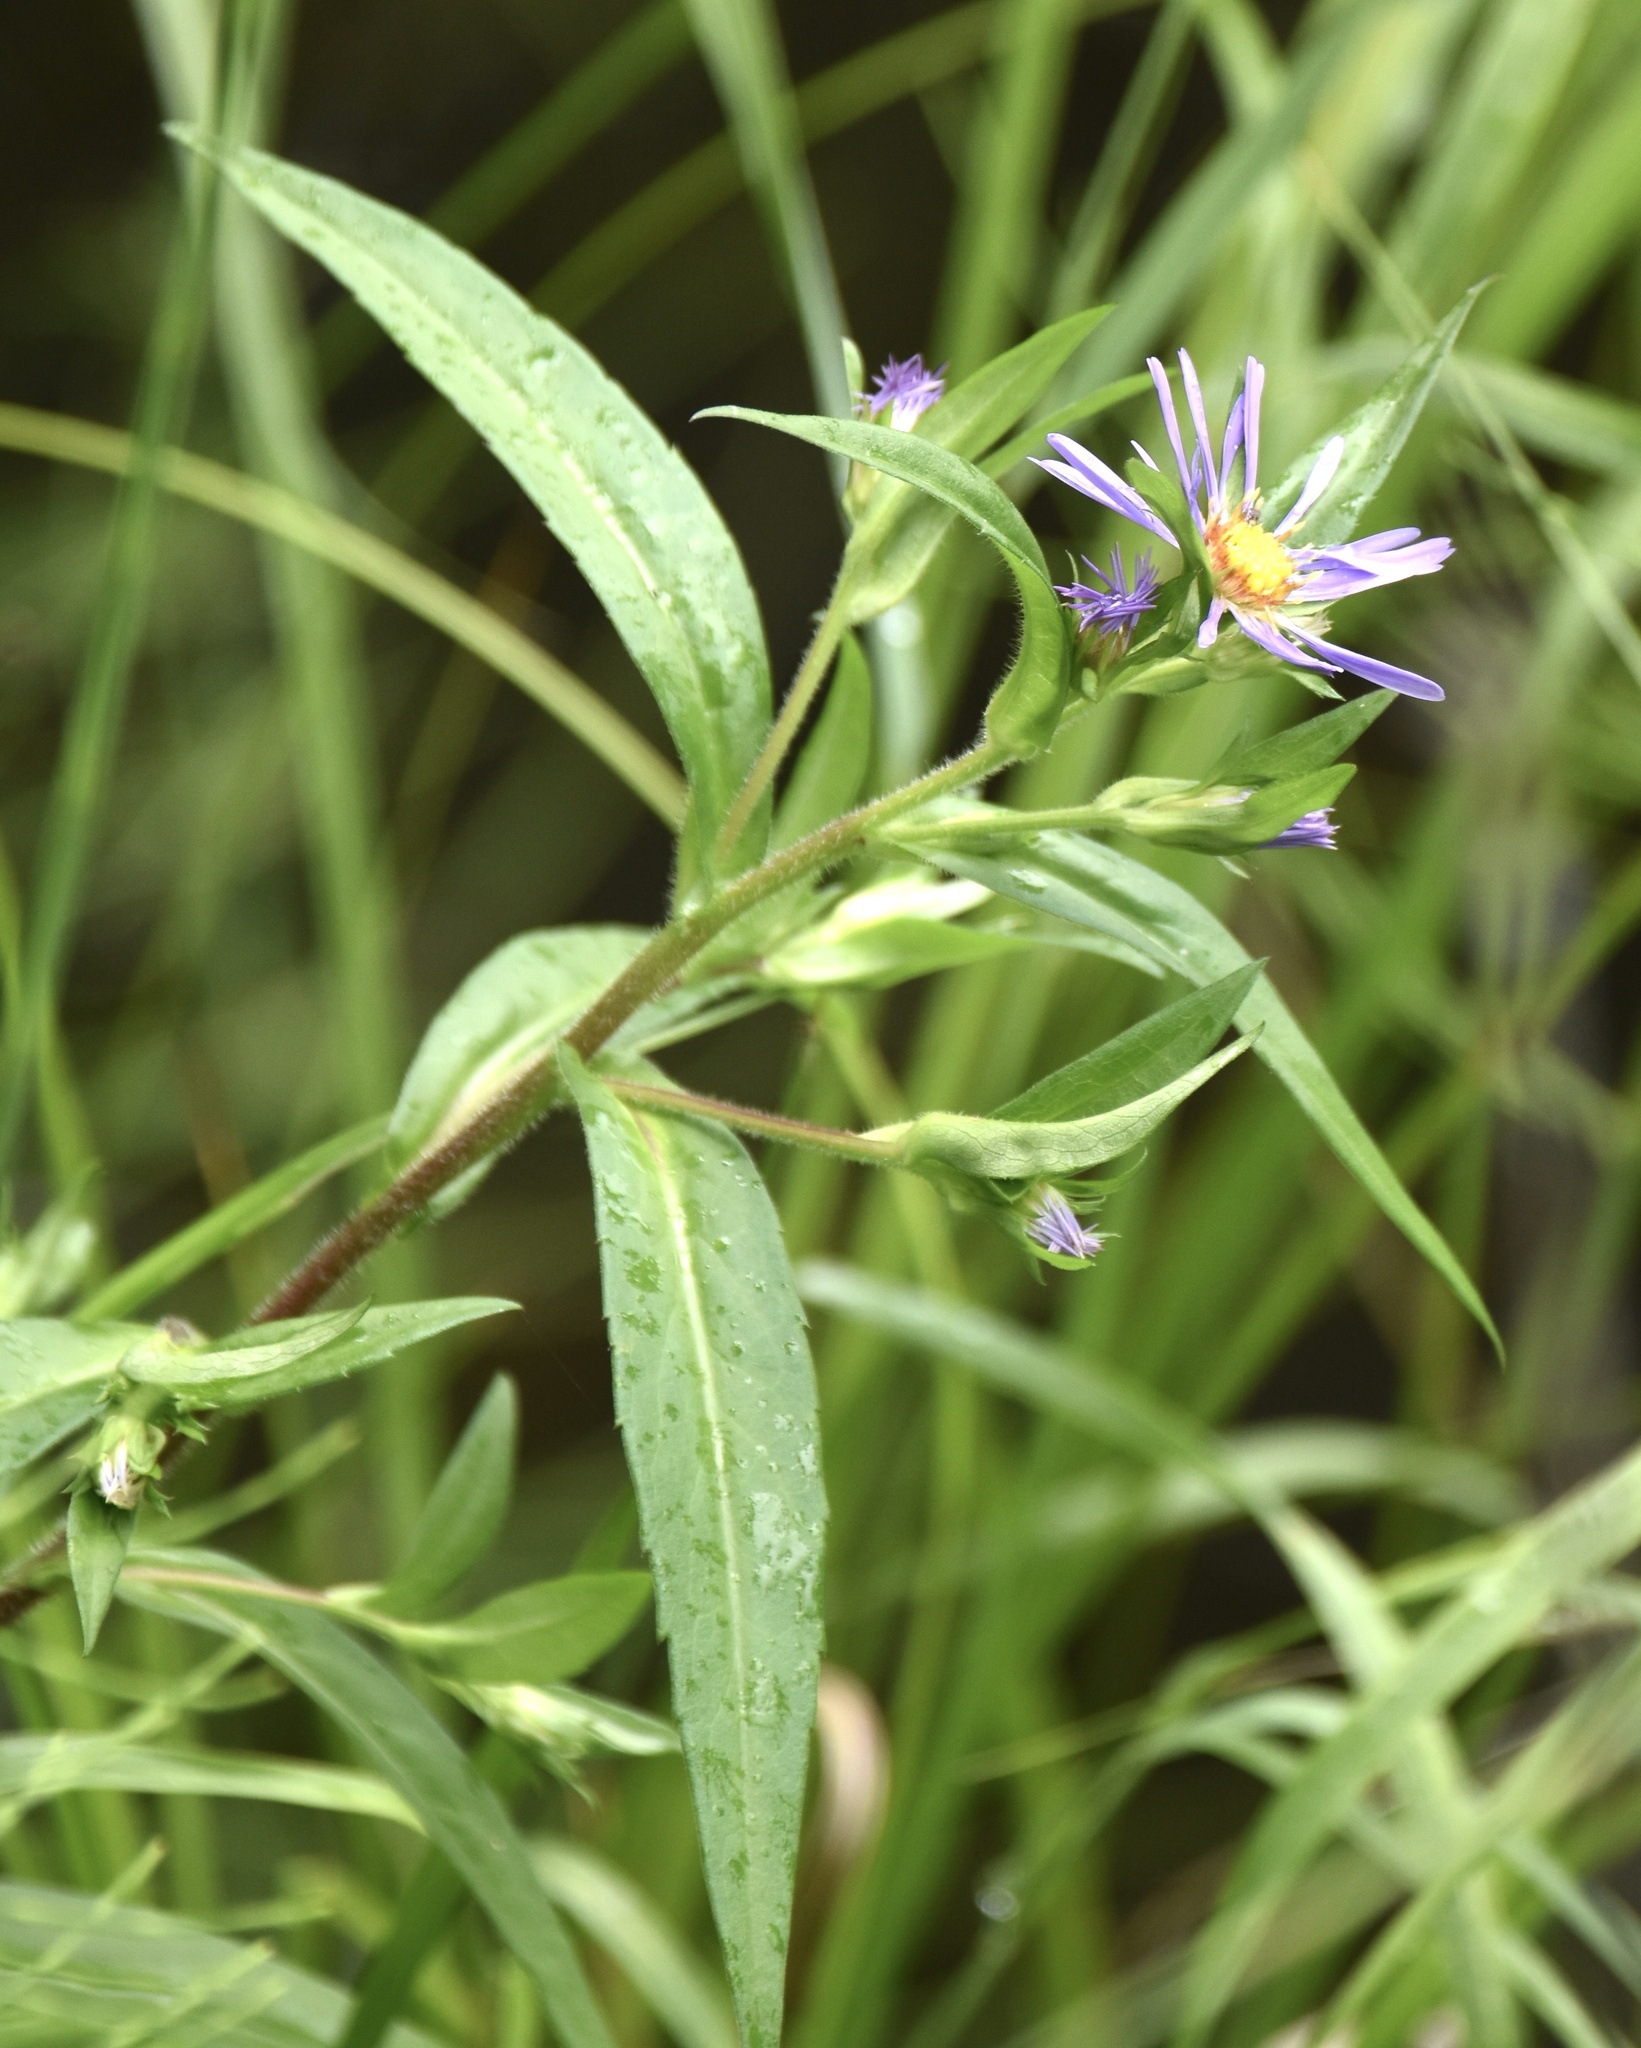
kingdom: Plantae
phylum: Tracheophyta
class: Magnoliopsida
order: Asterales
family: Asteraceae
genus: Symphyotrichum
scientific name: Symphyotrichum puniceum
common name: Bog aster
